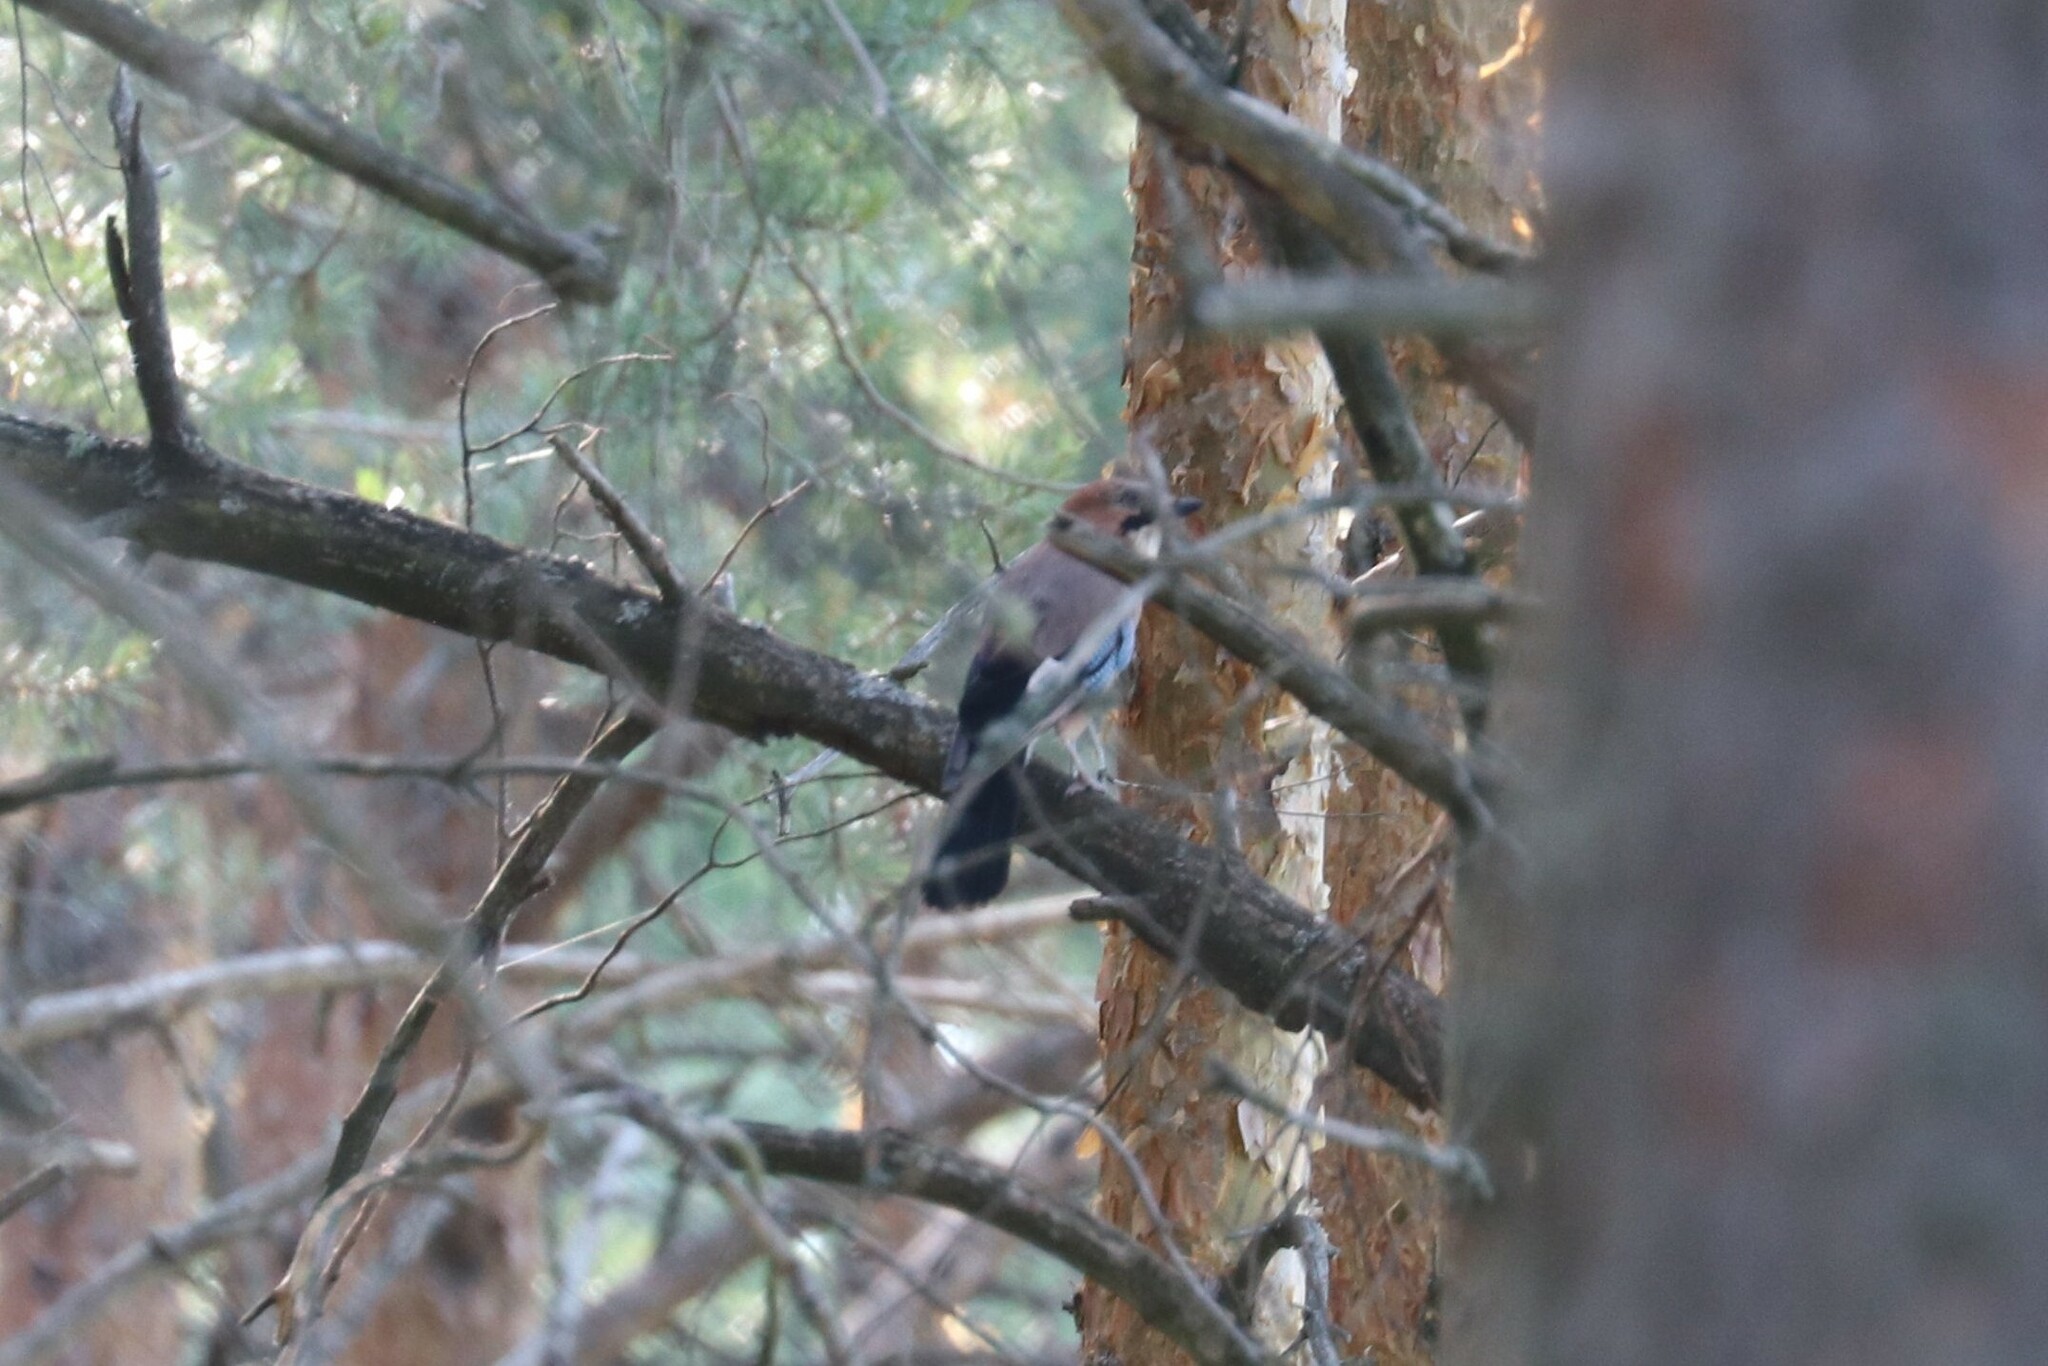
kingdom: Animalia
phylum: Chordata
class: Aves
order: Passeriformes
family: Corvidae
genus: Garrulus
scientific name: Garrulus glandarius
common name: Eurasian jay
